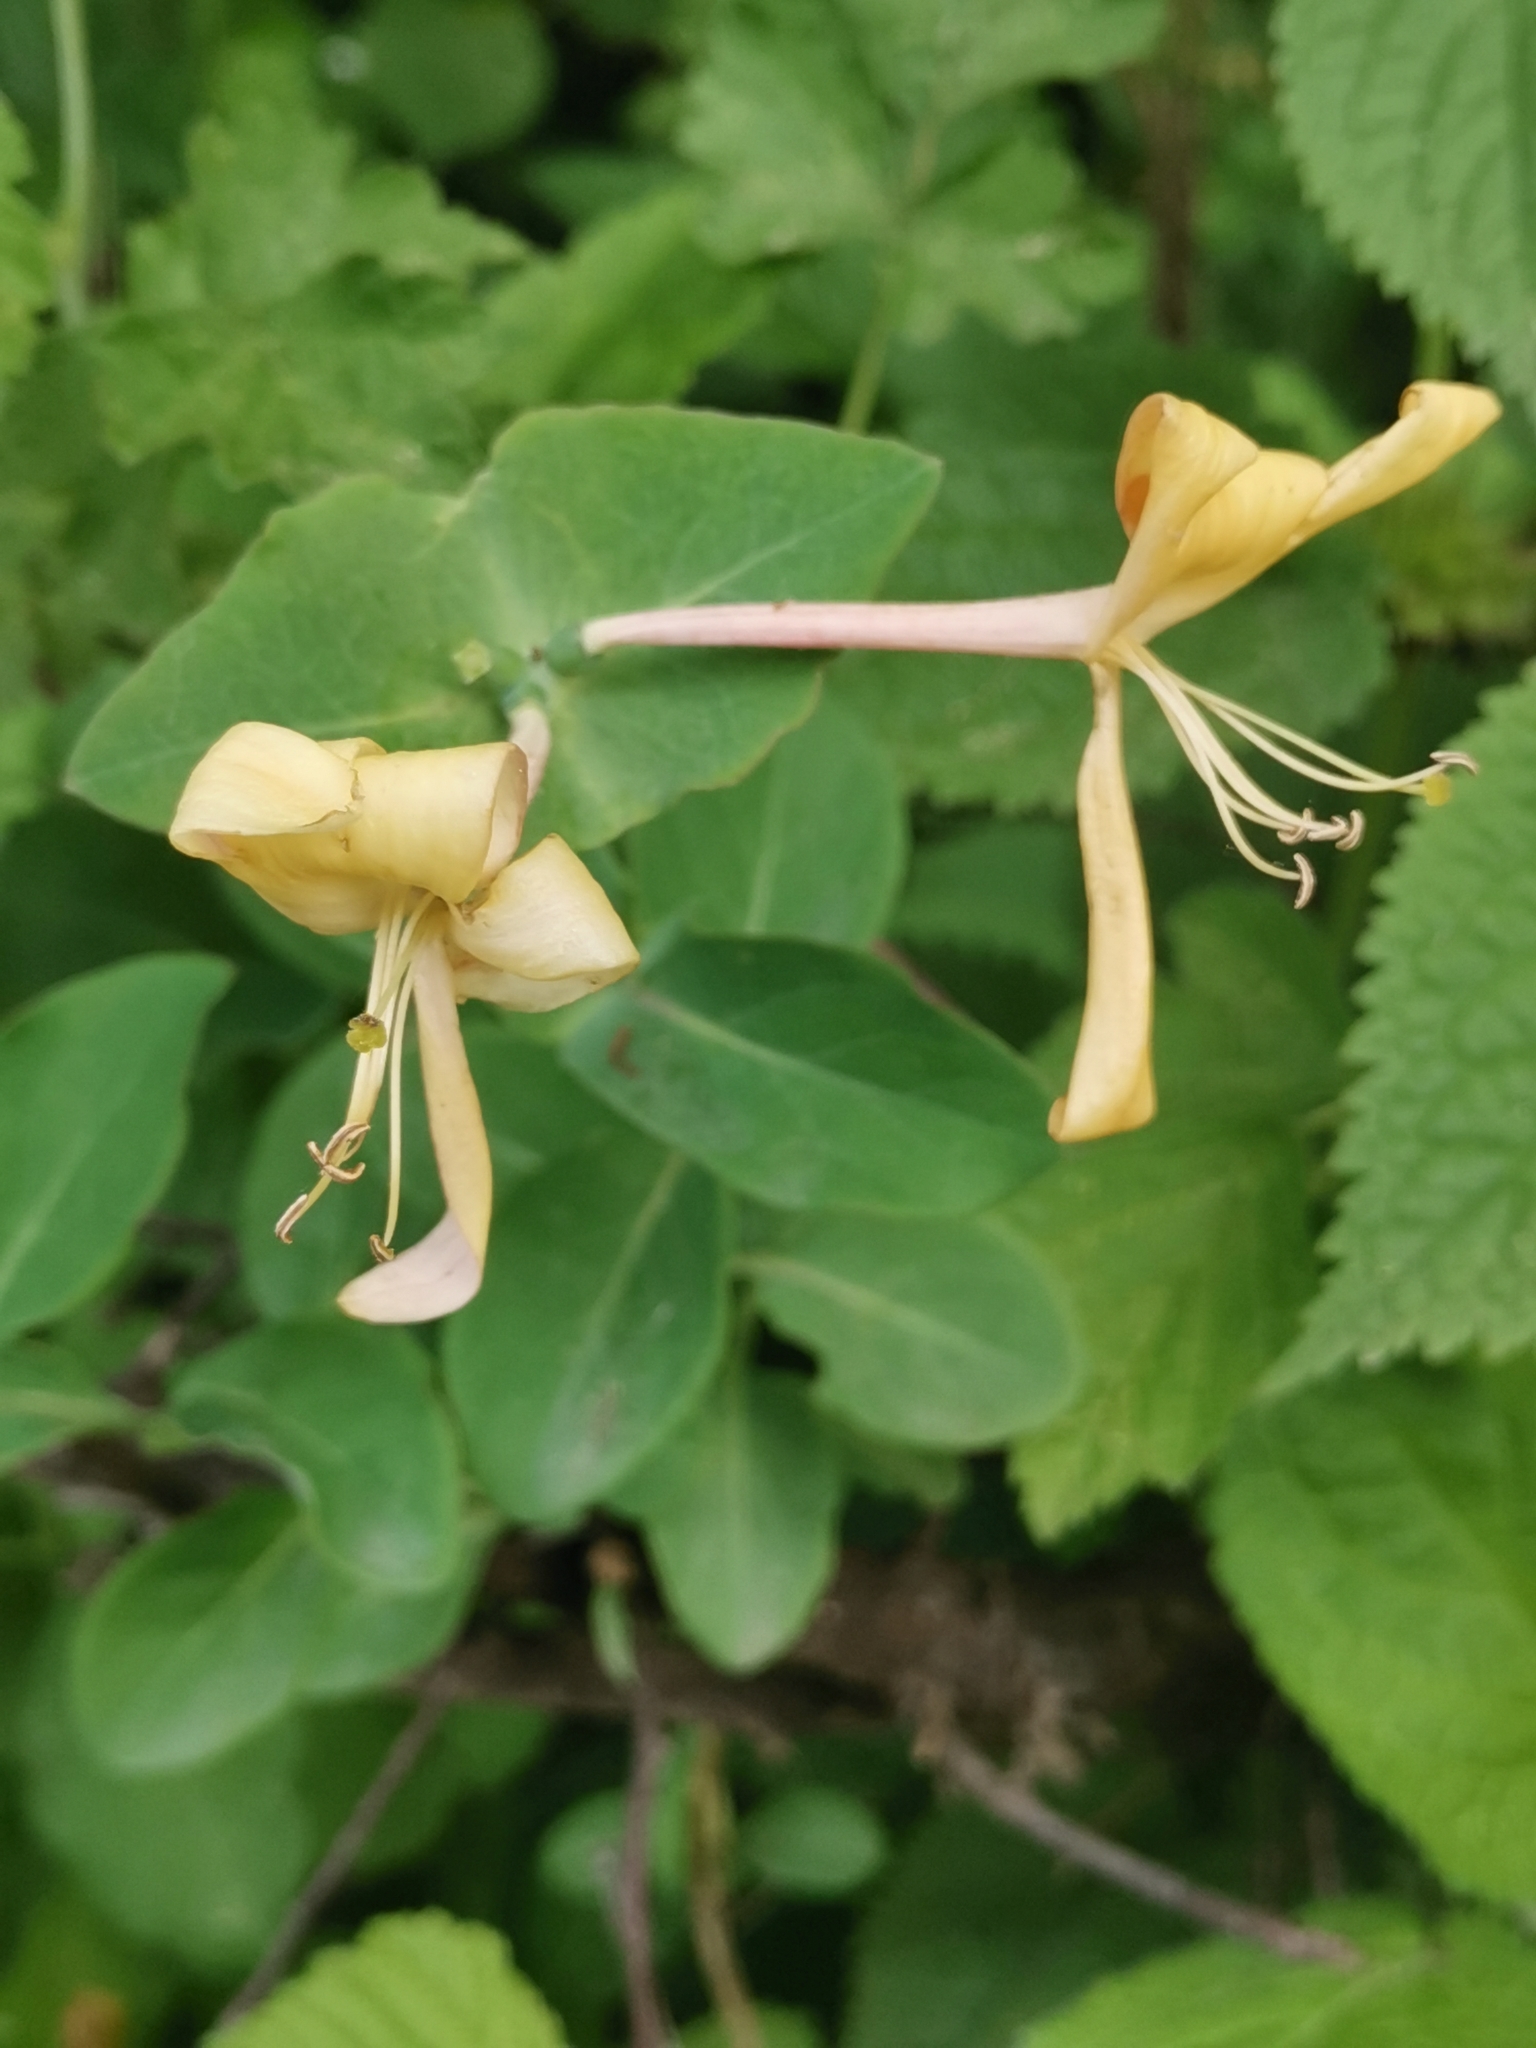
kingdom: Plantae
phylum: Tracheophyta
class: Magnoliopsida
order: Dipsacales
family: Caprifoliaceae
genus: Lonicera
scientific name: Lonicera caprifolium
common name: Perfoliate honeysuckle
